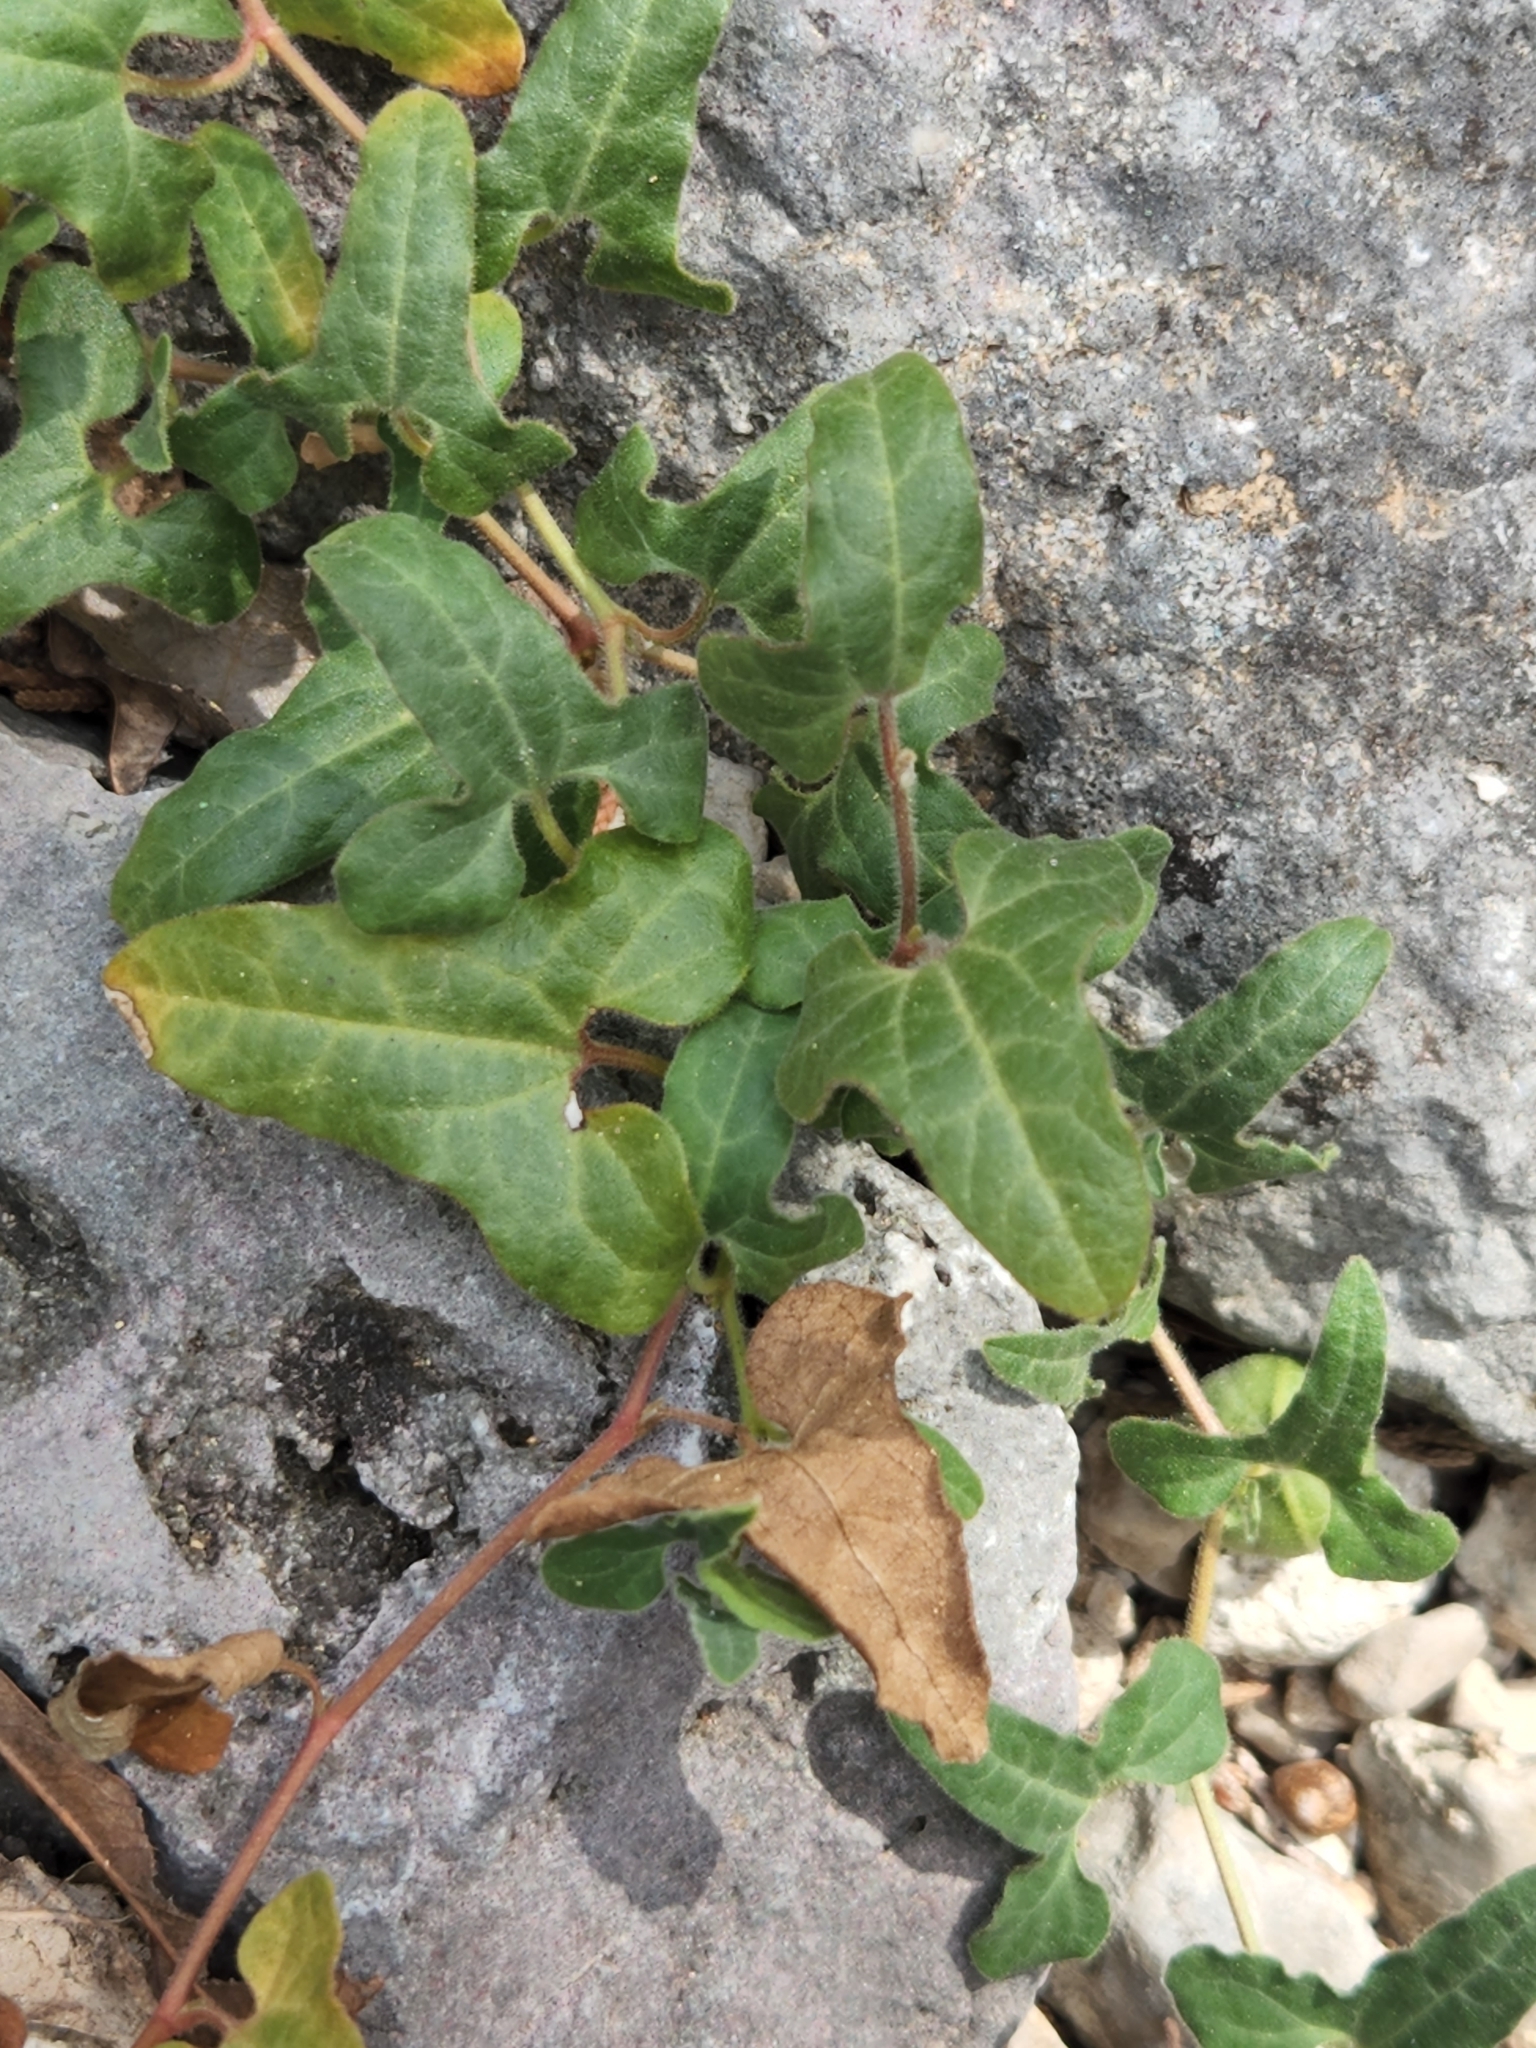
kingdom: Plantae
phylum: Tracheophyta
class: Magnoliopsida
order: Piperales
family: Aristolochiaceae
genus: Aristolochia
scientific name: Aristolochia coryi
